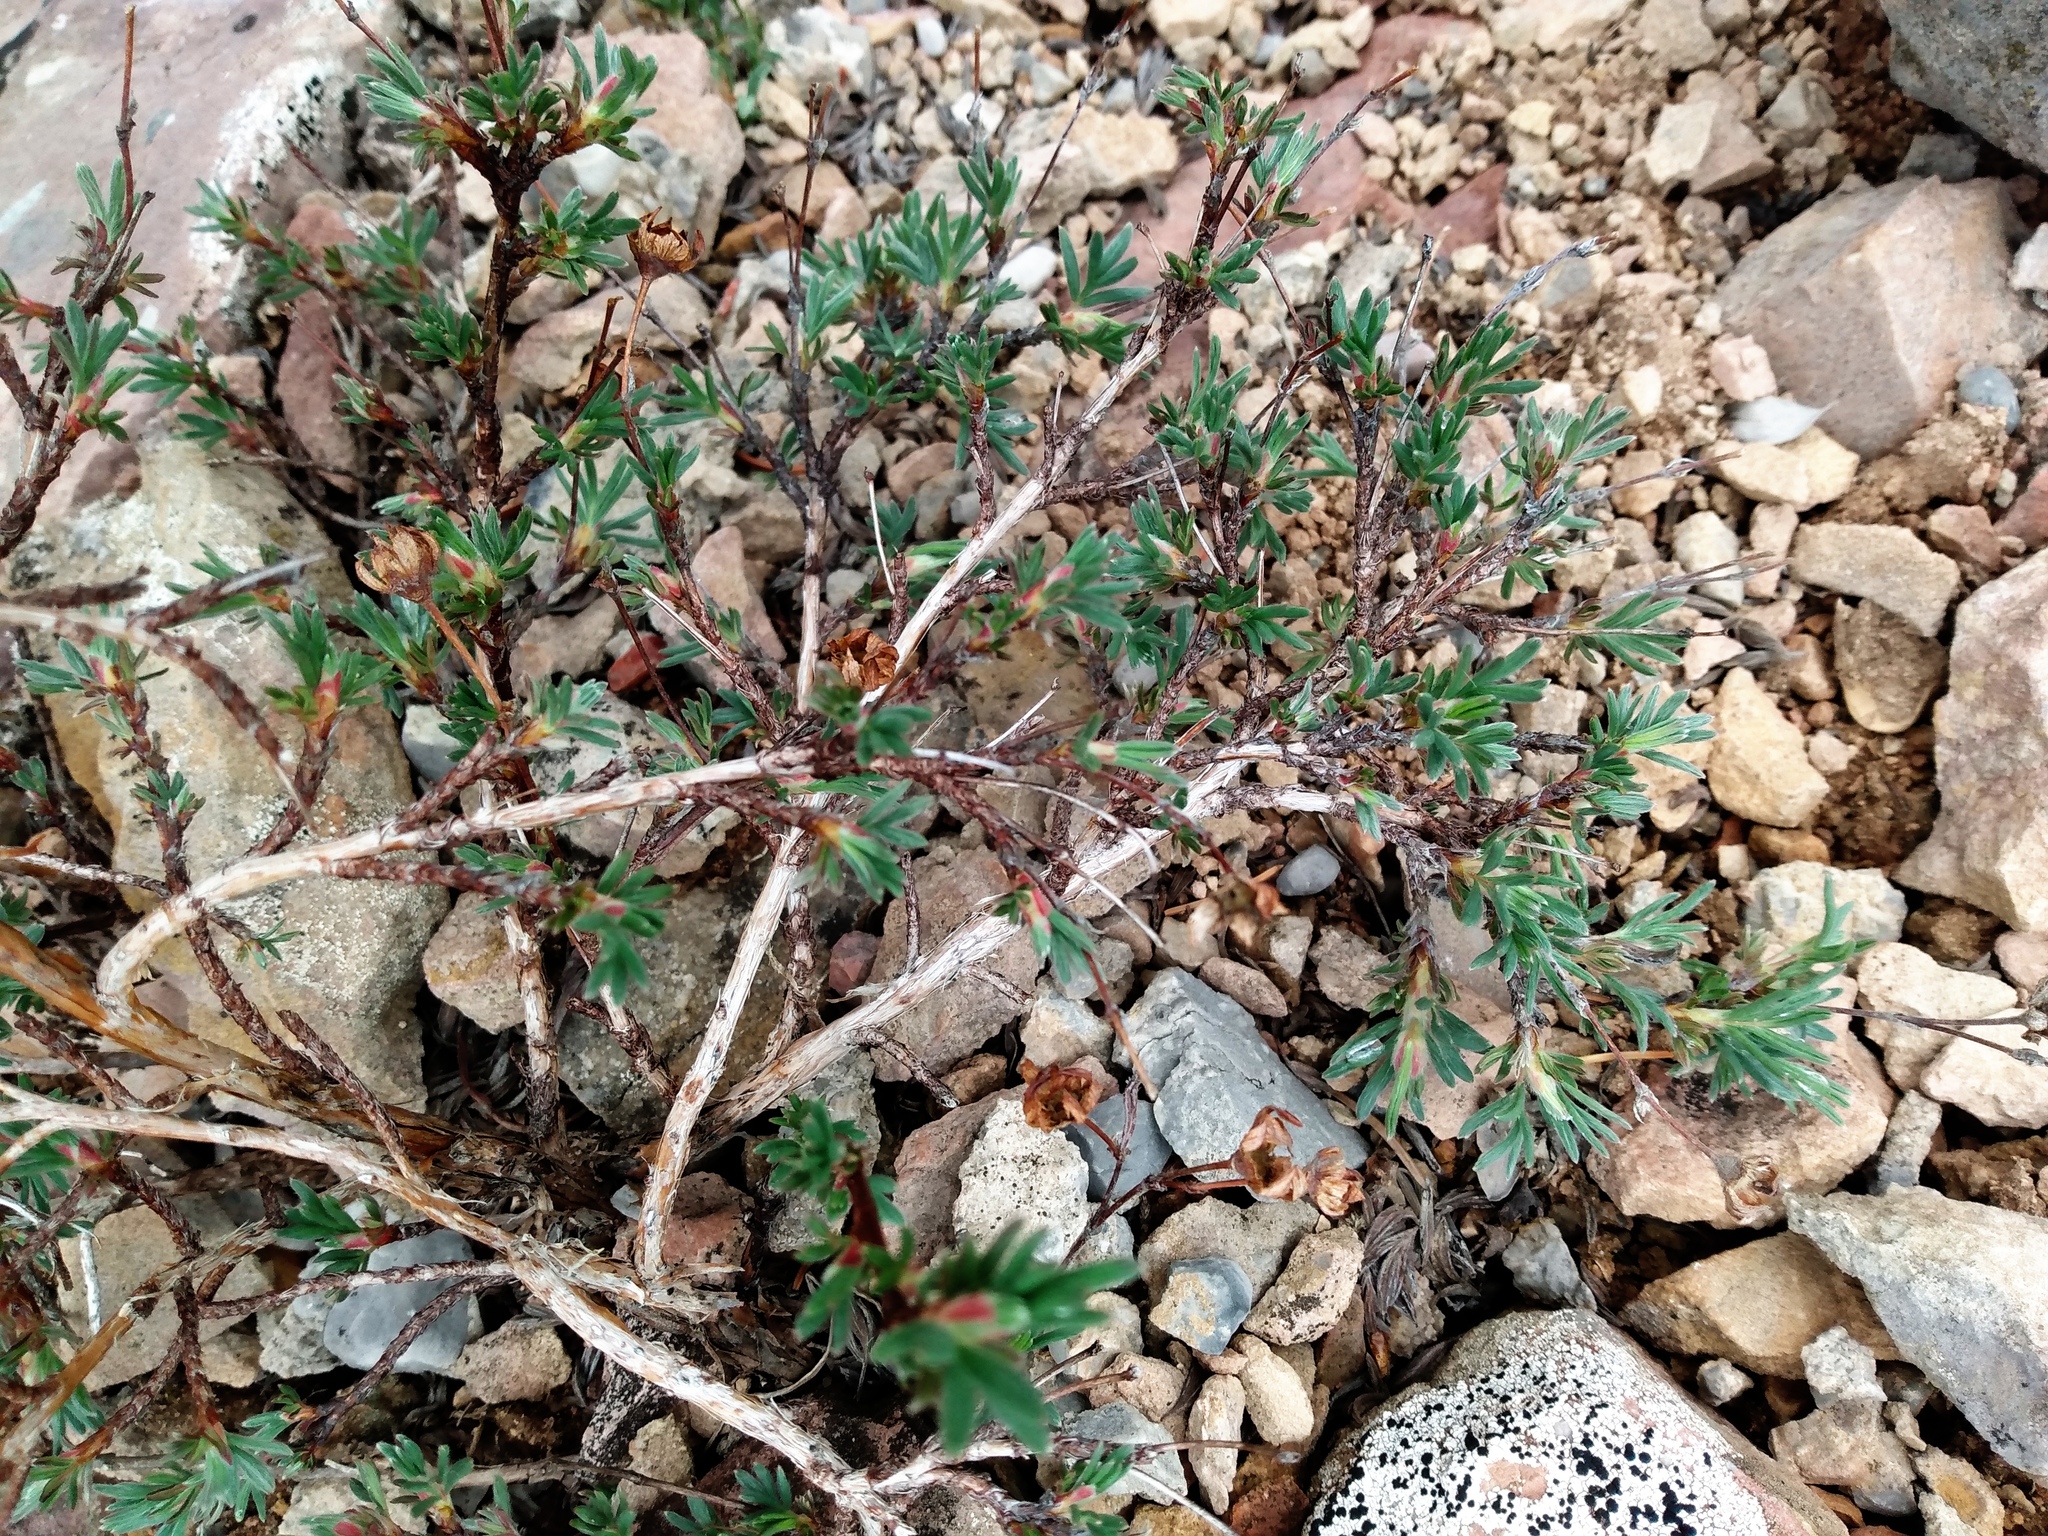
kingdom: Plantae
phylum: Tracheophyta
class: Magnoliopsida
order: Rosales
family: Rosaceae
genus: Dasiphora
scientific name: Dasiphora fruticosa
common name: Shrubby cinquefoil
